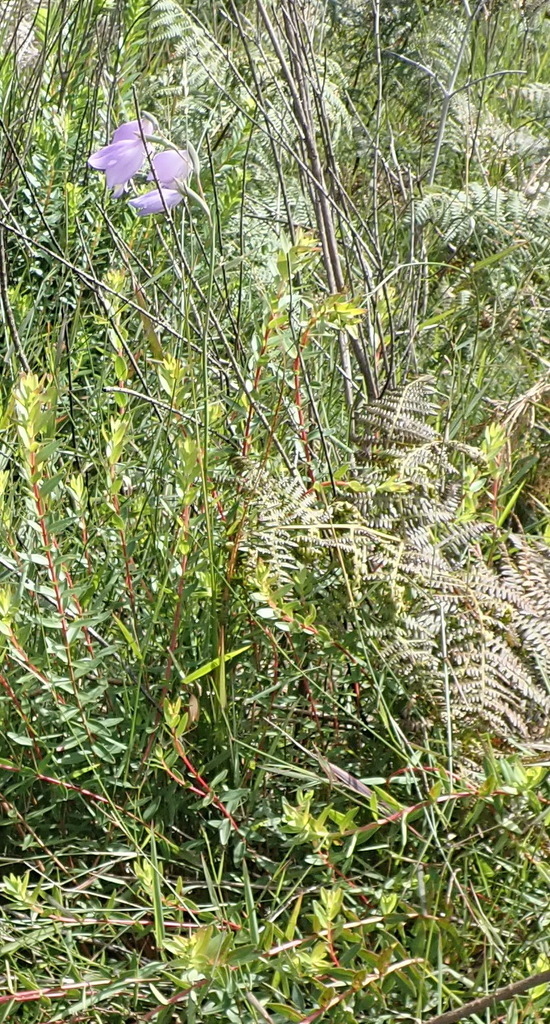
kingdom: Plantae
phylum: Tracheophyta
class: Liliopsida
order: Asparagales
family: Iridaceae
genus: Gladiolus
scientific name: Gladiolus rogersii
